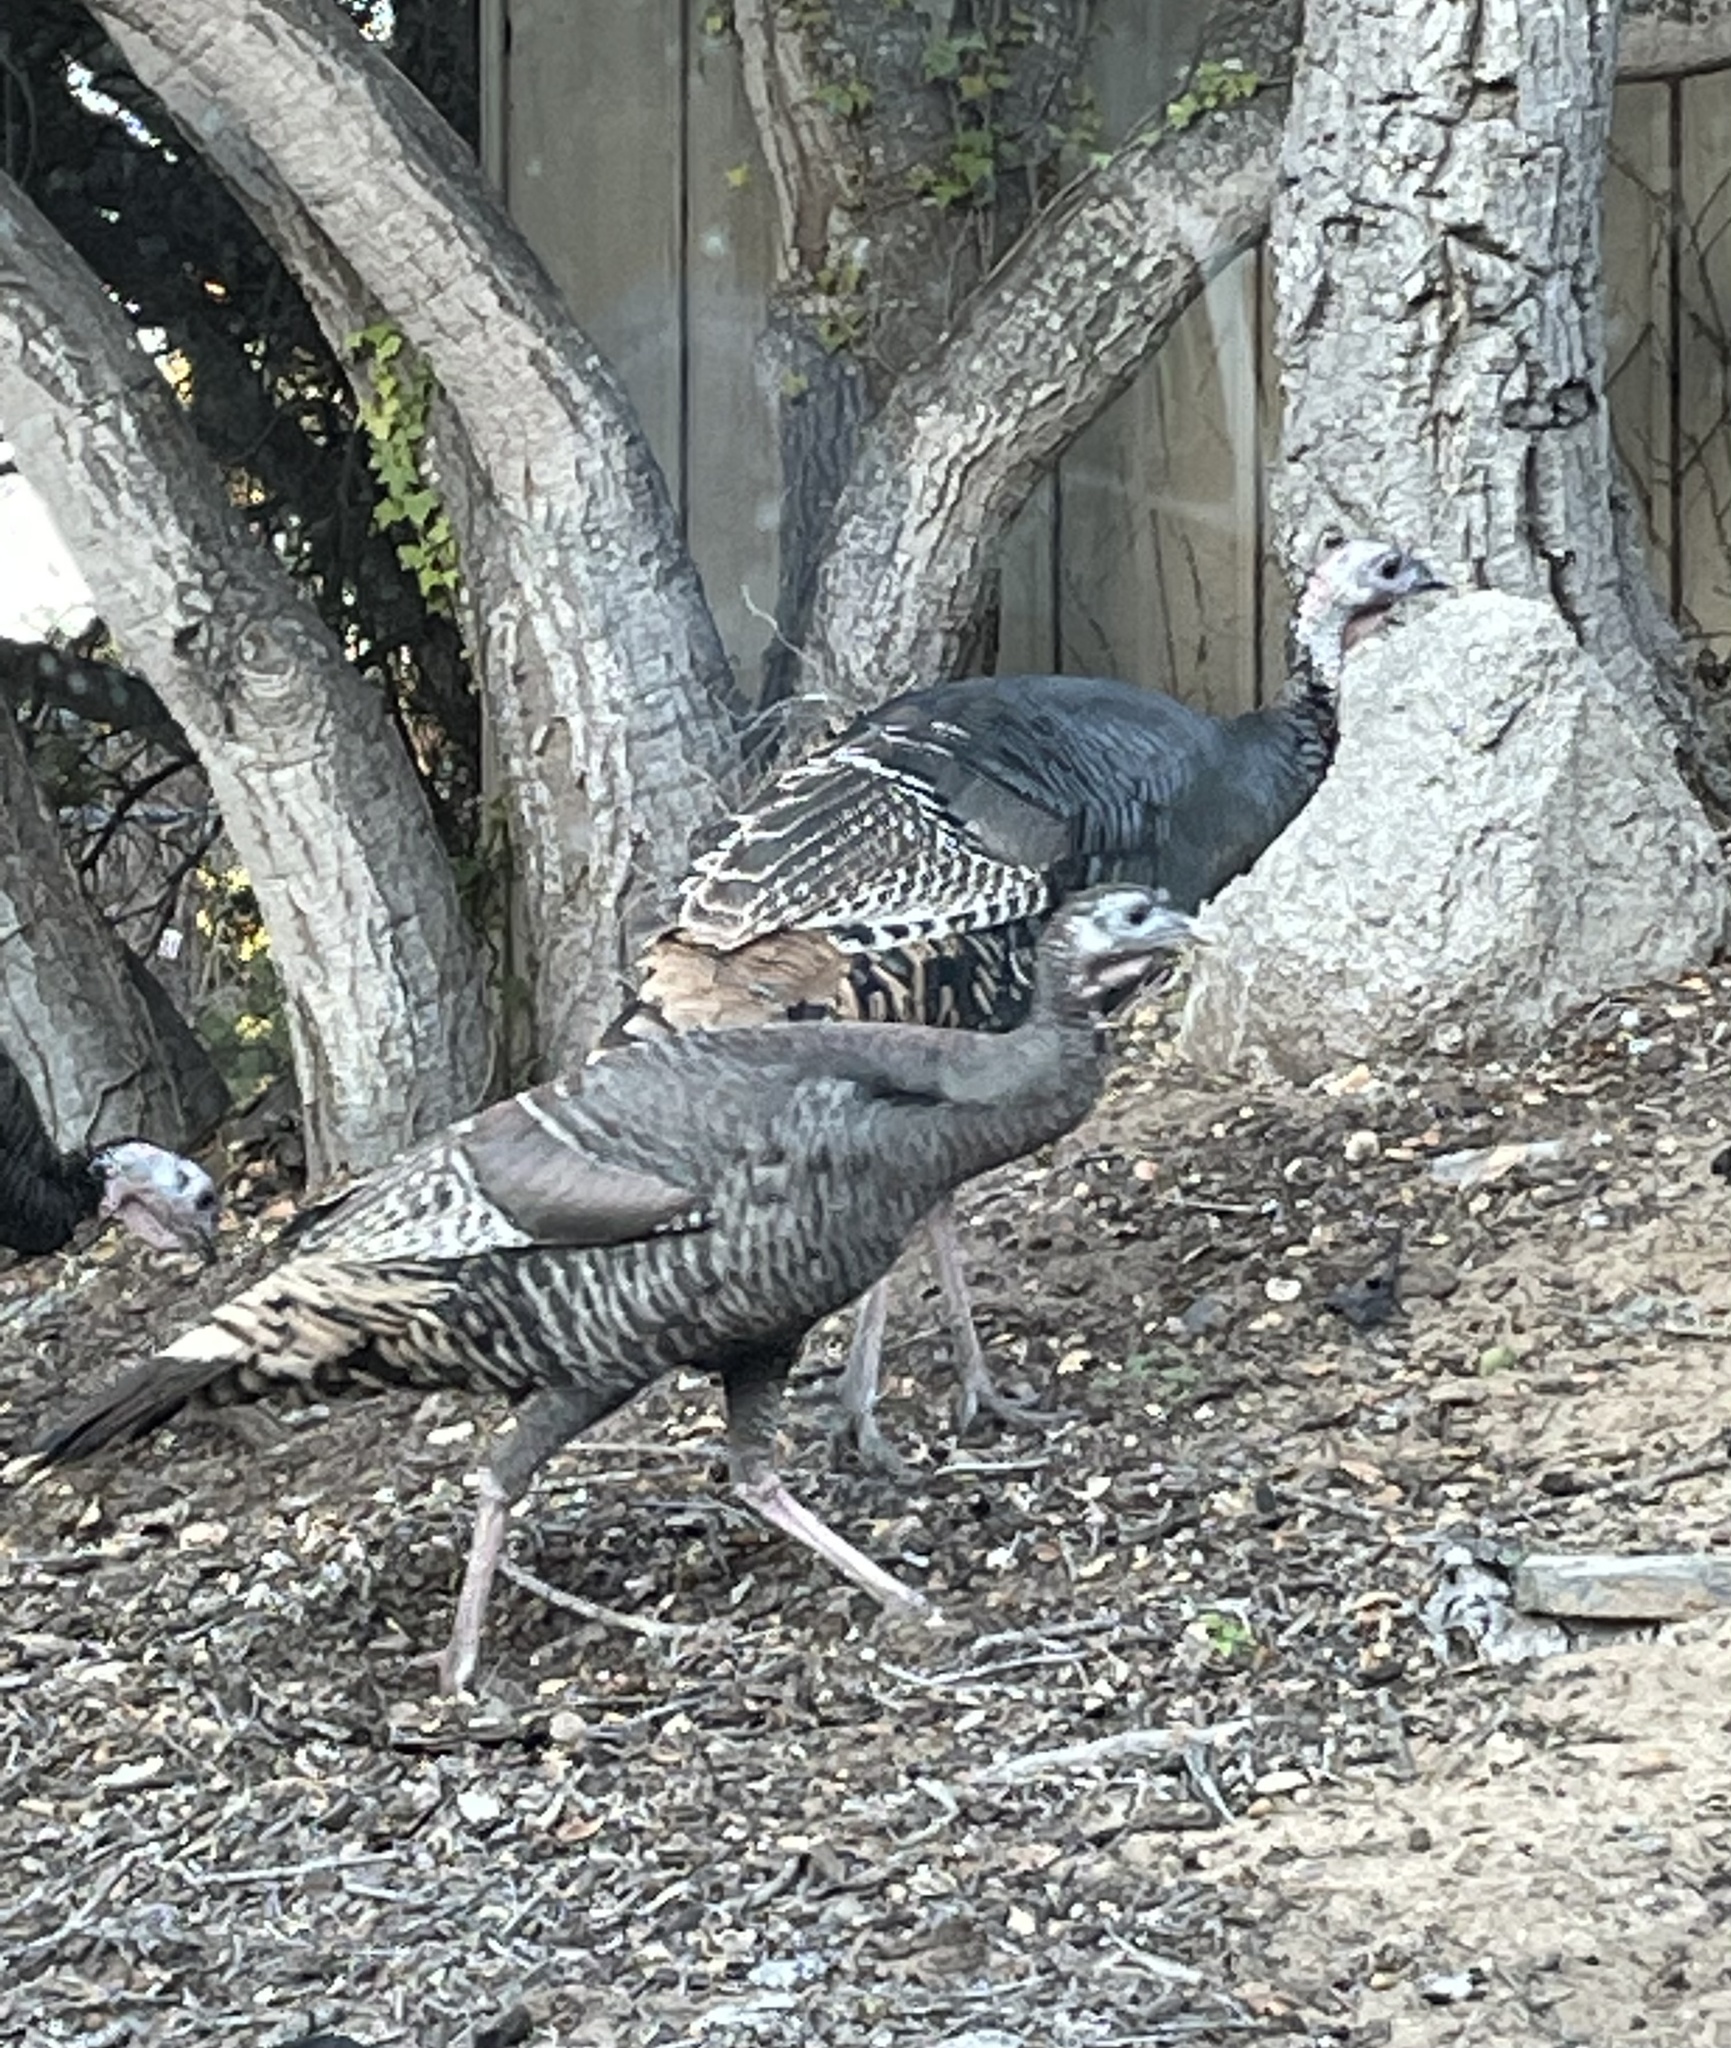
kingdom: Animalia
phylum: Chordata
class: Aves
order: Galliformes
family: Phasianidae
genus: Meleagris
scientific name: Meleagris gallopavo
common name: Wild turkey
